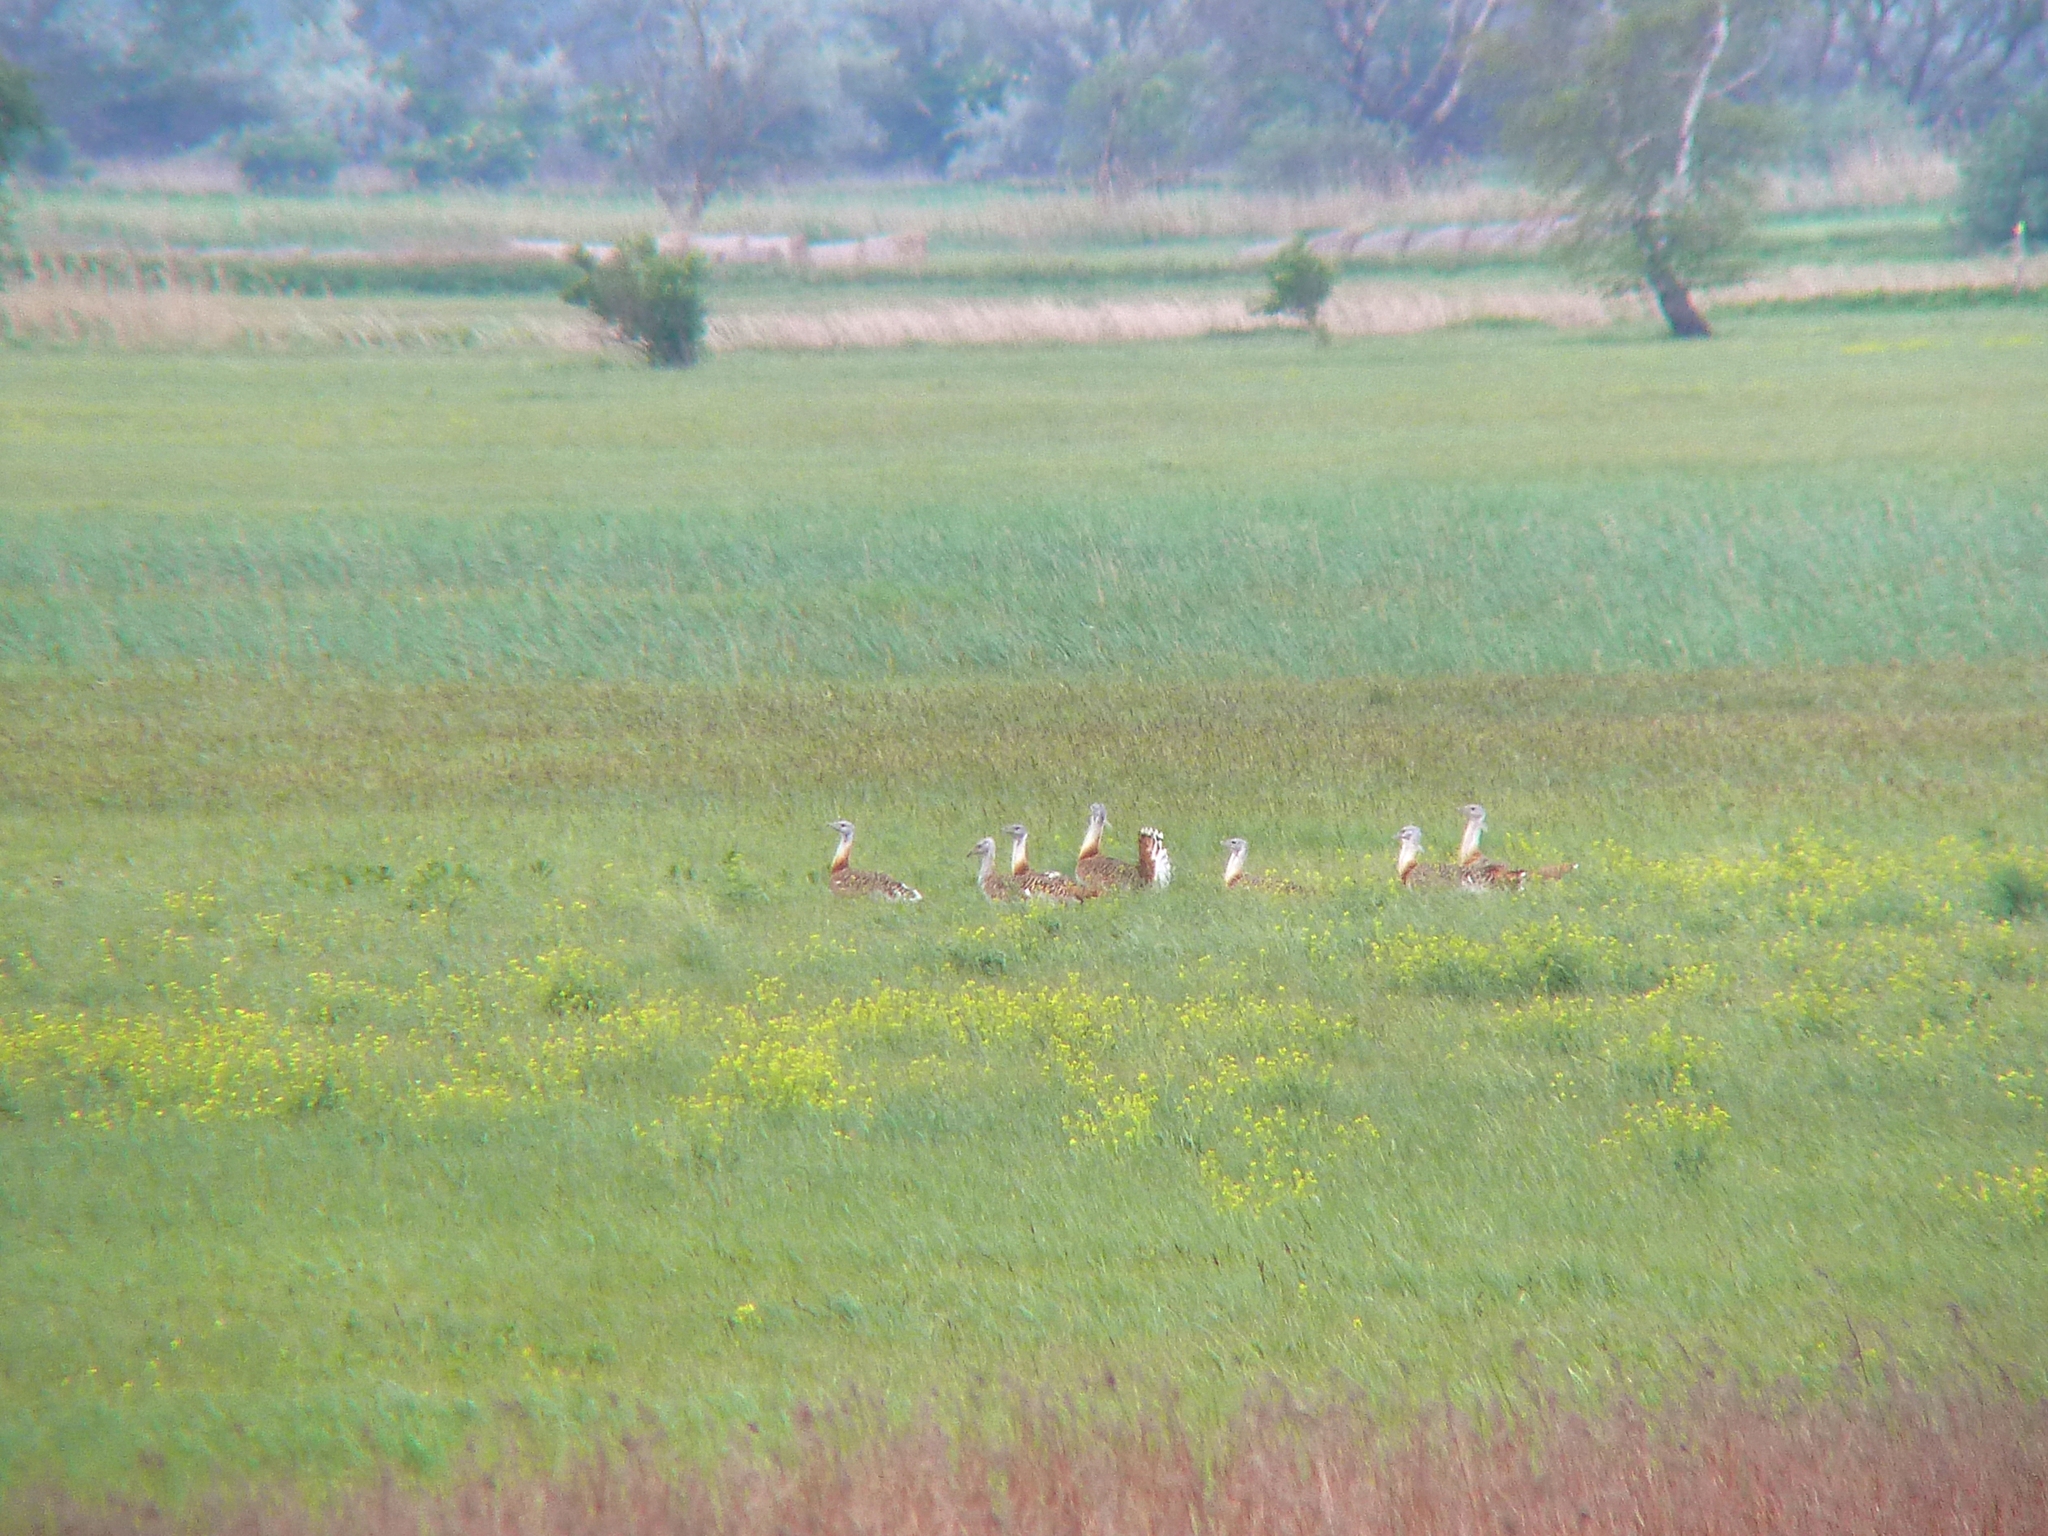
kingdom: Animalia
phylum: Chordata
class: Aves
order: Otidiformes
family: Otididae
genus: Otis
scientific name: Otis tarda
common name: Great bustard
